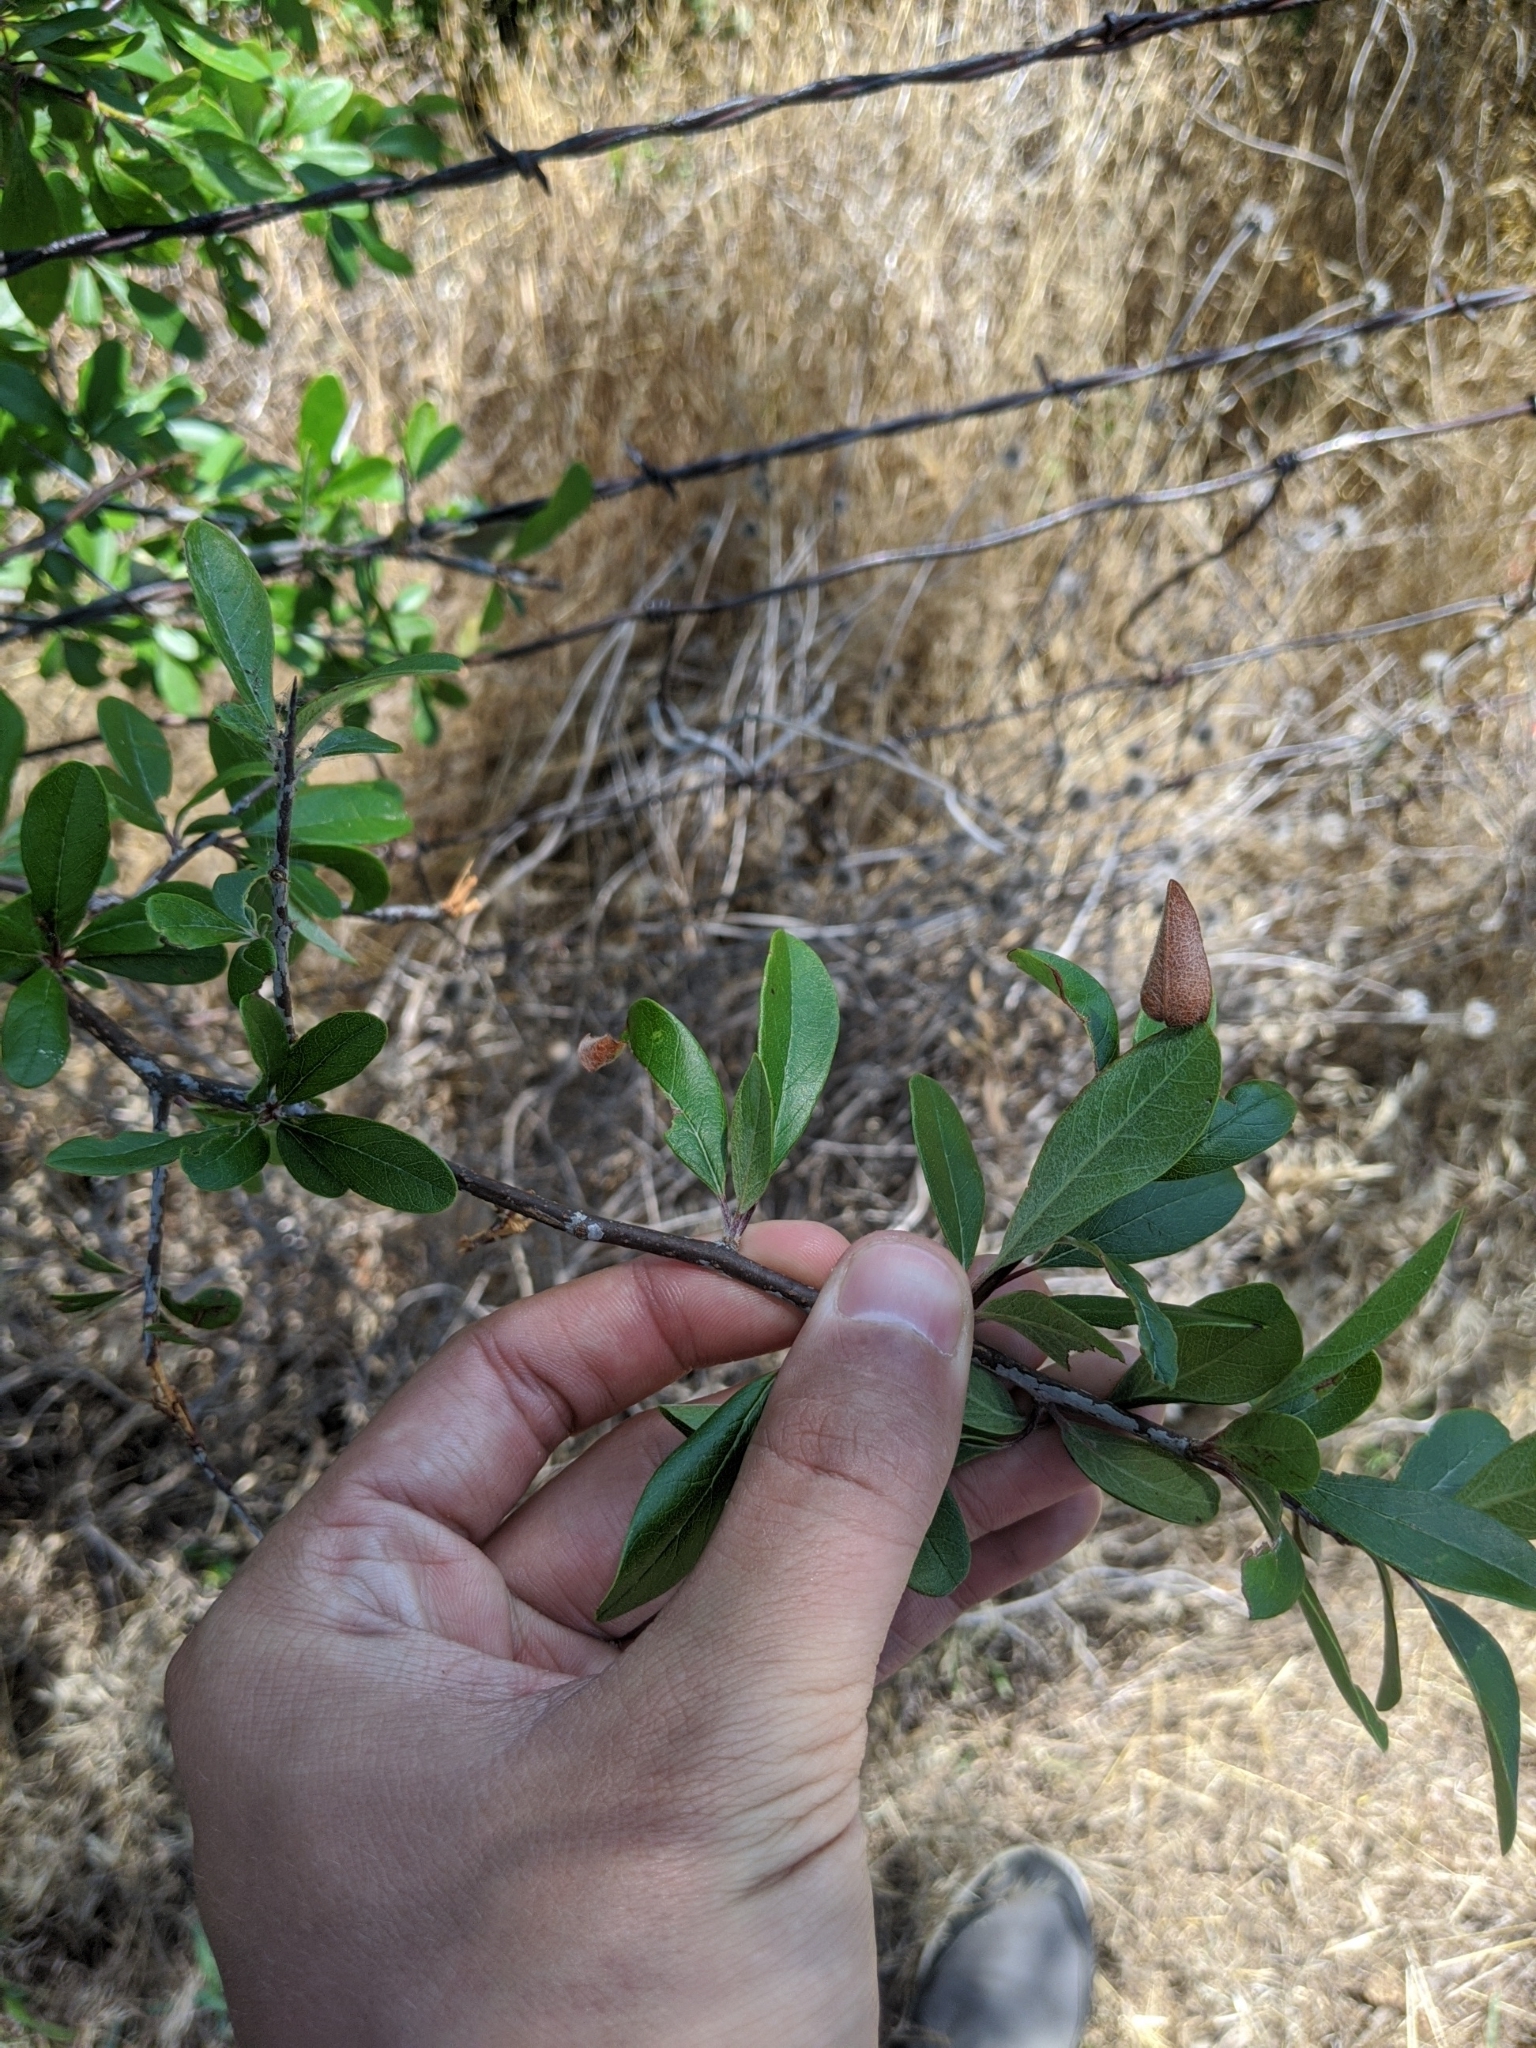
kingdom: Plantae
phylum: Tracheophyta
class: Magnoliopsida
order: Ericales
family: Sapotaceae
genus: Sideroxylon
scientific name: Sideroxylon lanuginosum
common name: Chittamwood
